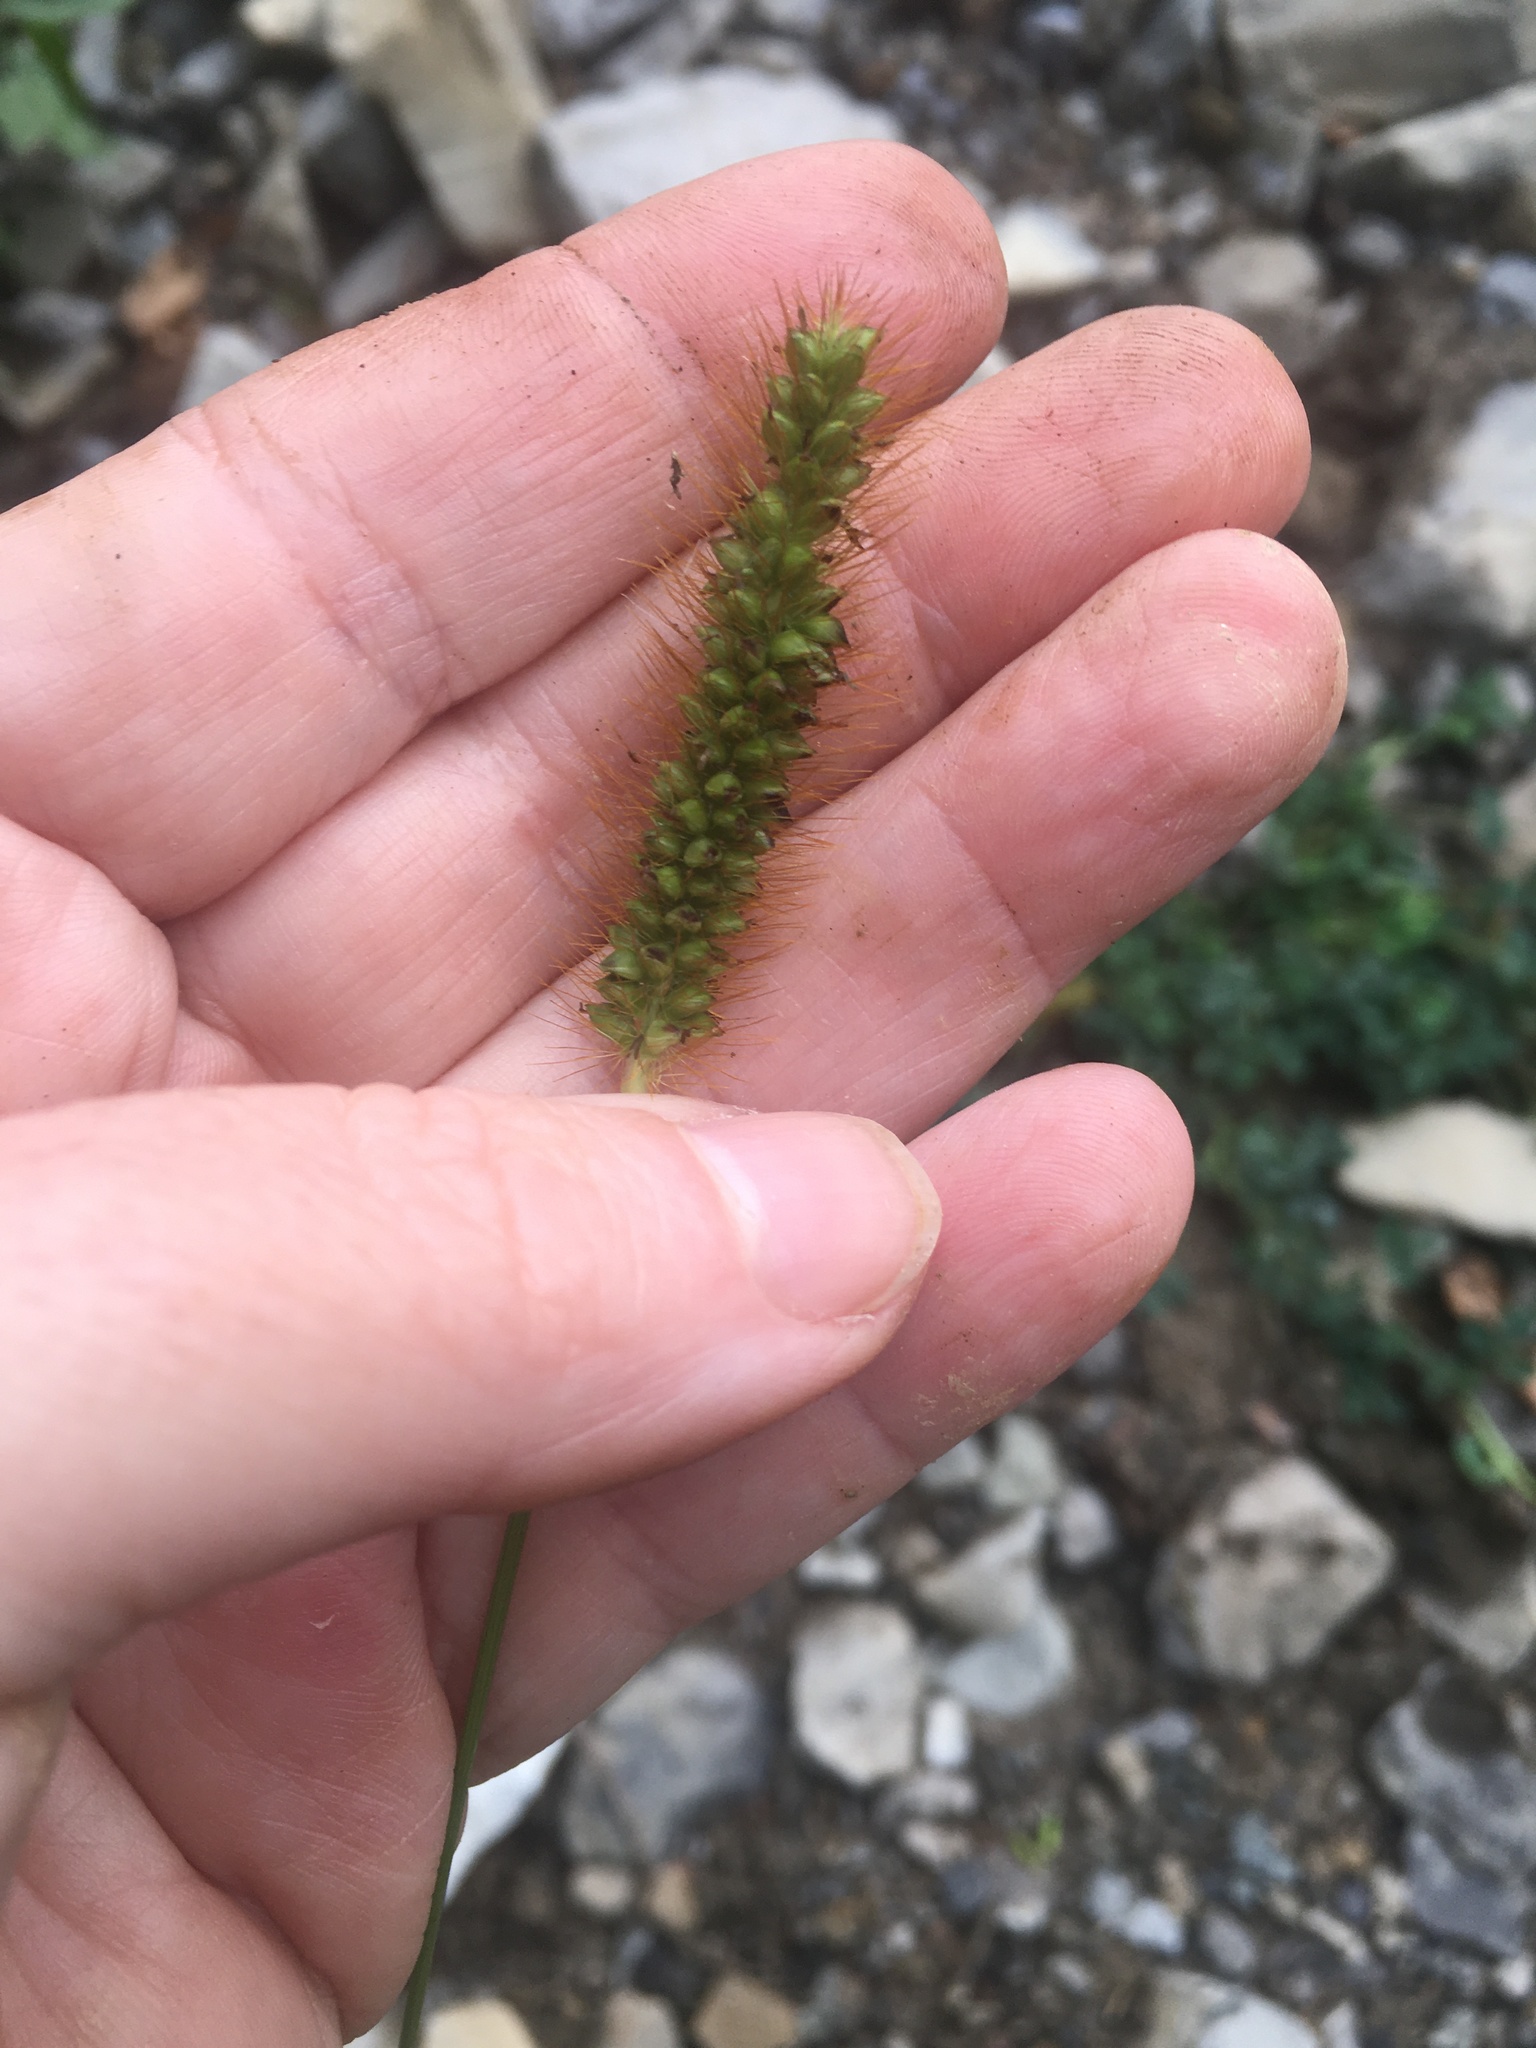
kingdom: Plantae
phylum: Tracheophyta
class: Liliopsida
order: Poales
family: Poaceae
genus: Setaria
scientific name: Setaria pumila
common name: Yellow bristle-grass
